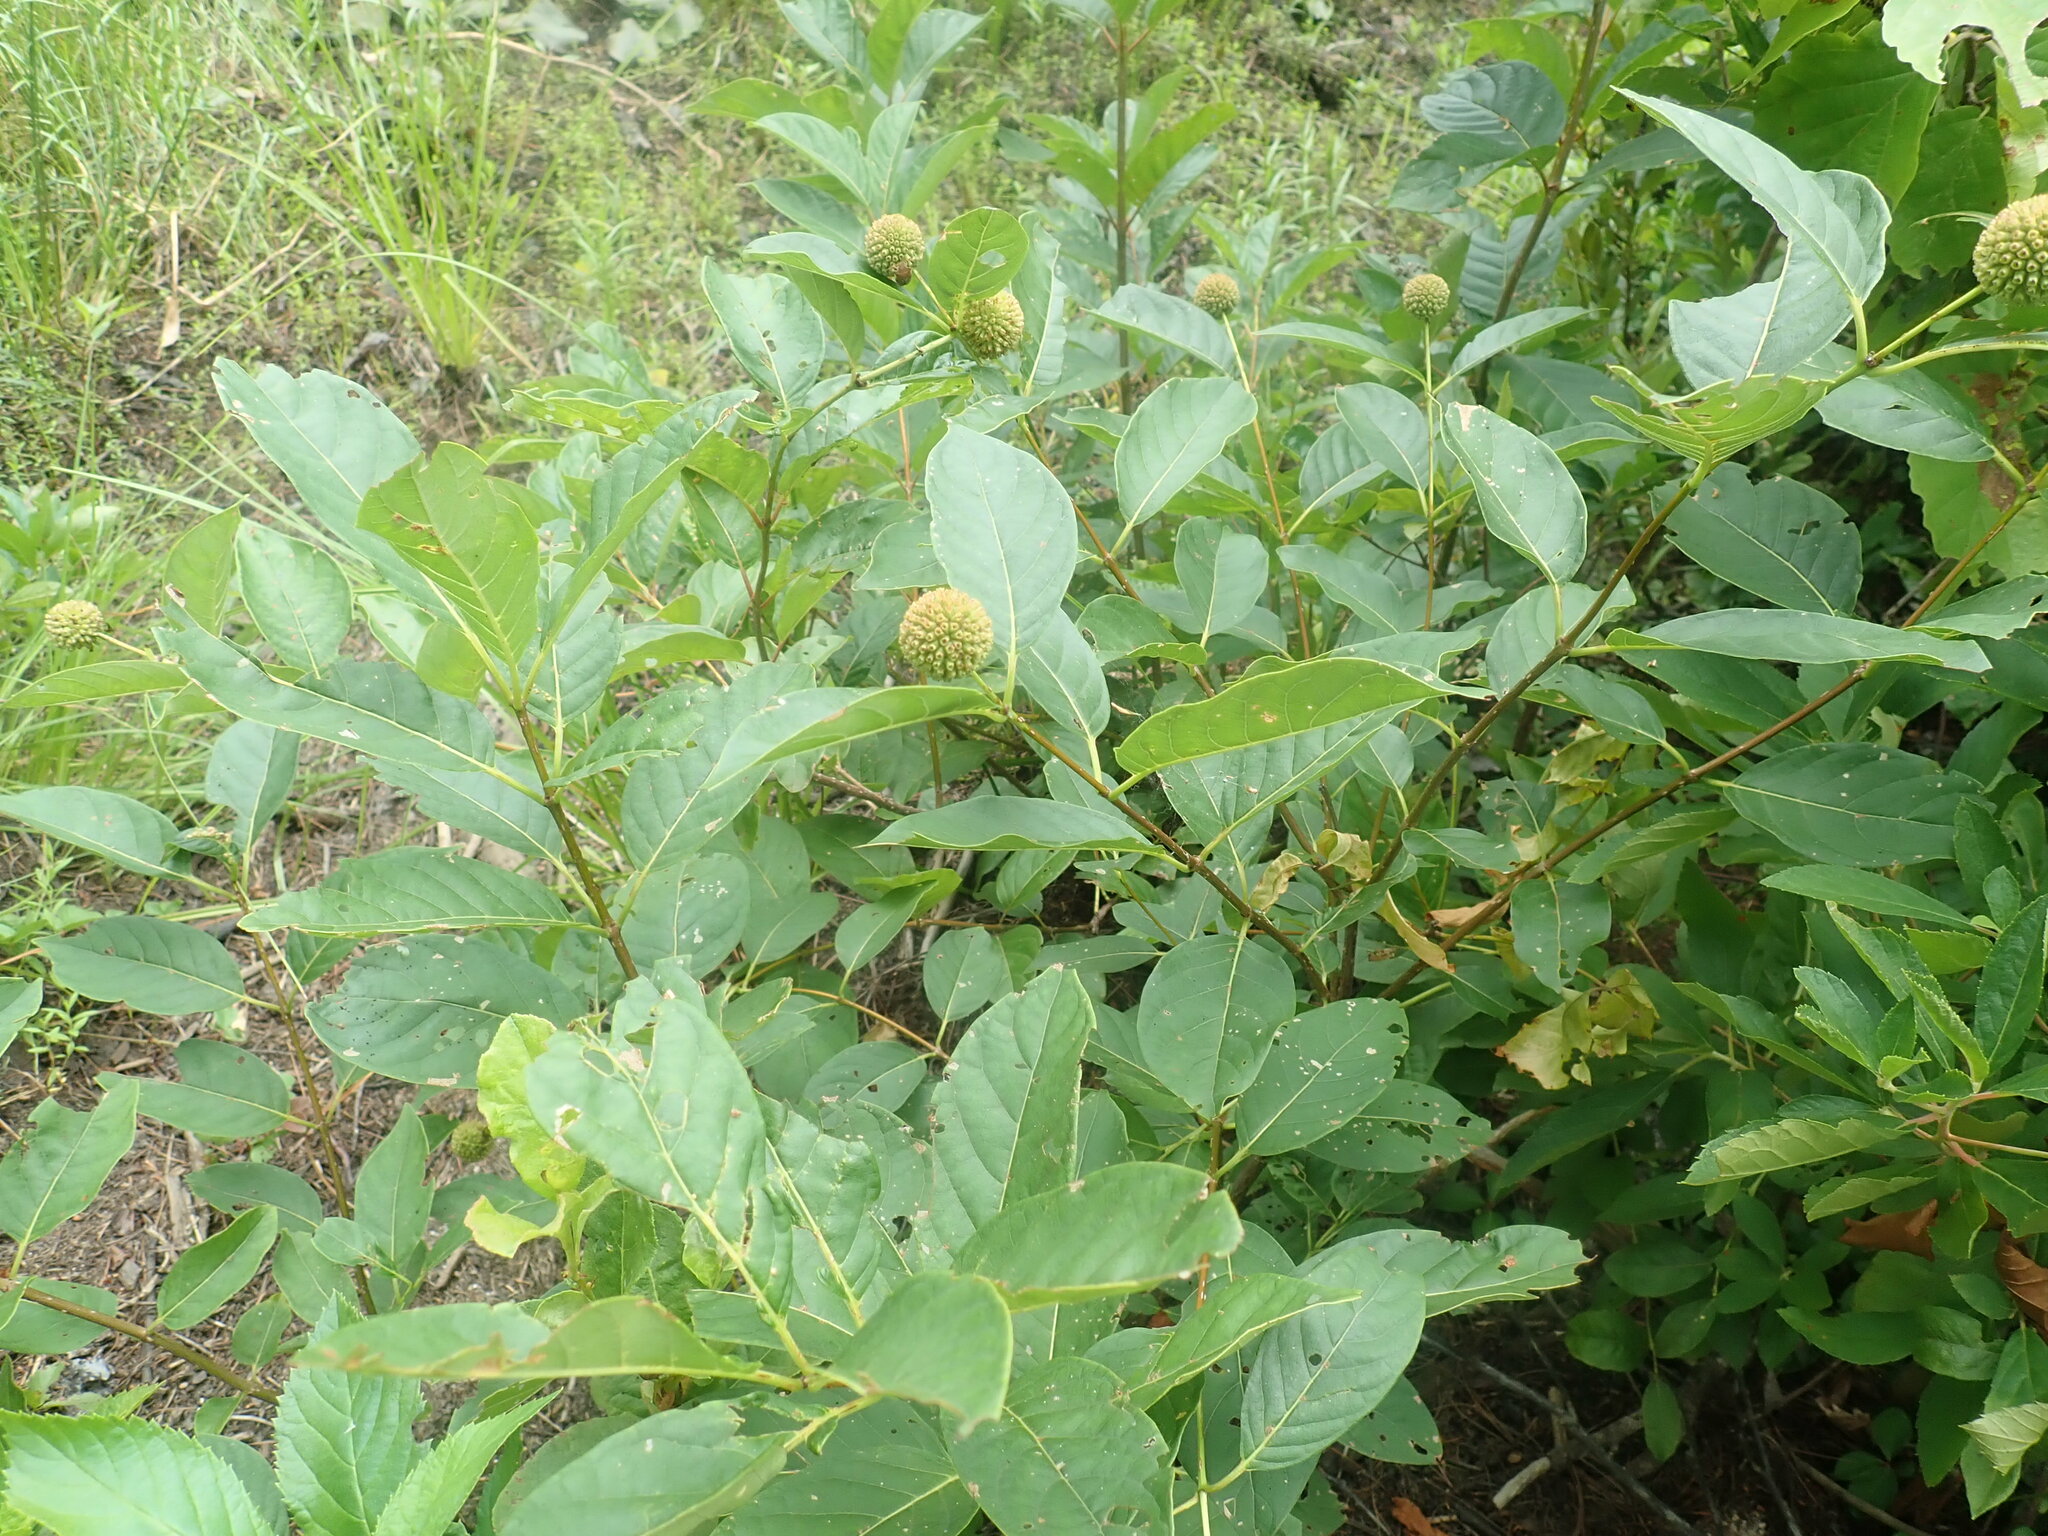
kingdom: Plantae
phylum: Tracheophyta
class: Magnoliopsida
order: Gentianales
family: Rubiaceae
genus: Cephalanthus
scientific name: Cephalanthus occidentalis
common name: Button-willow
